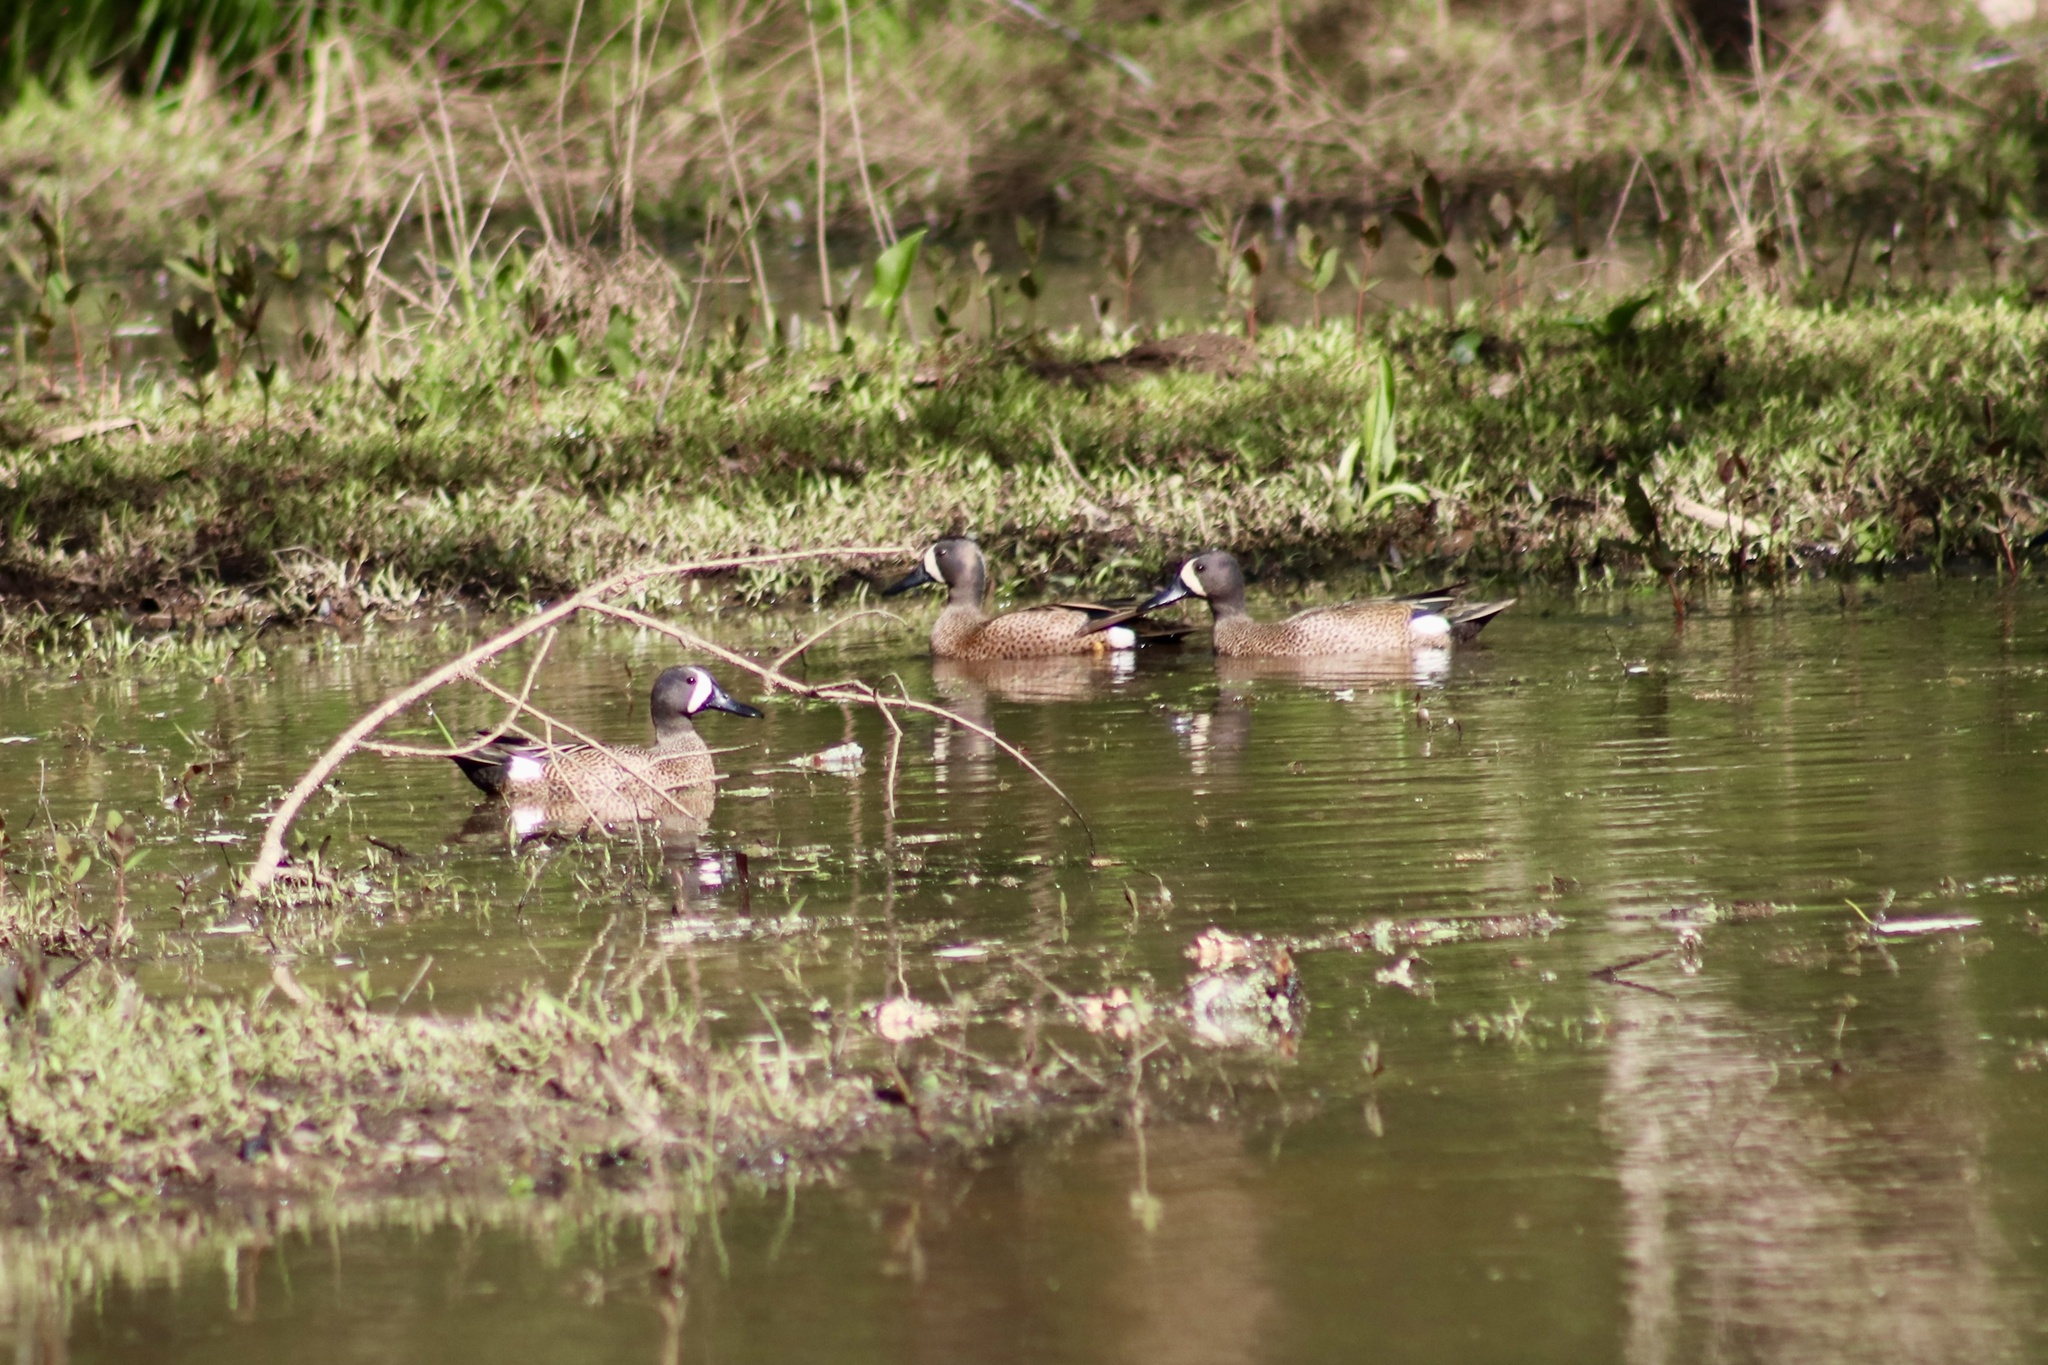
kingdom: Animalia
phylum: Chordata
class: Aves
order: Anseriformes
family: Anatidae
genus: Spatula
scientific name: Spatula discors
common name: Blue-winged teal
